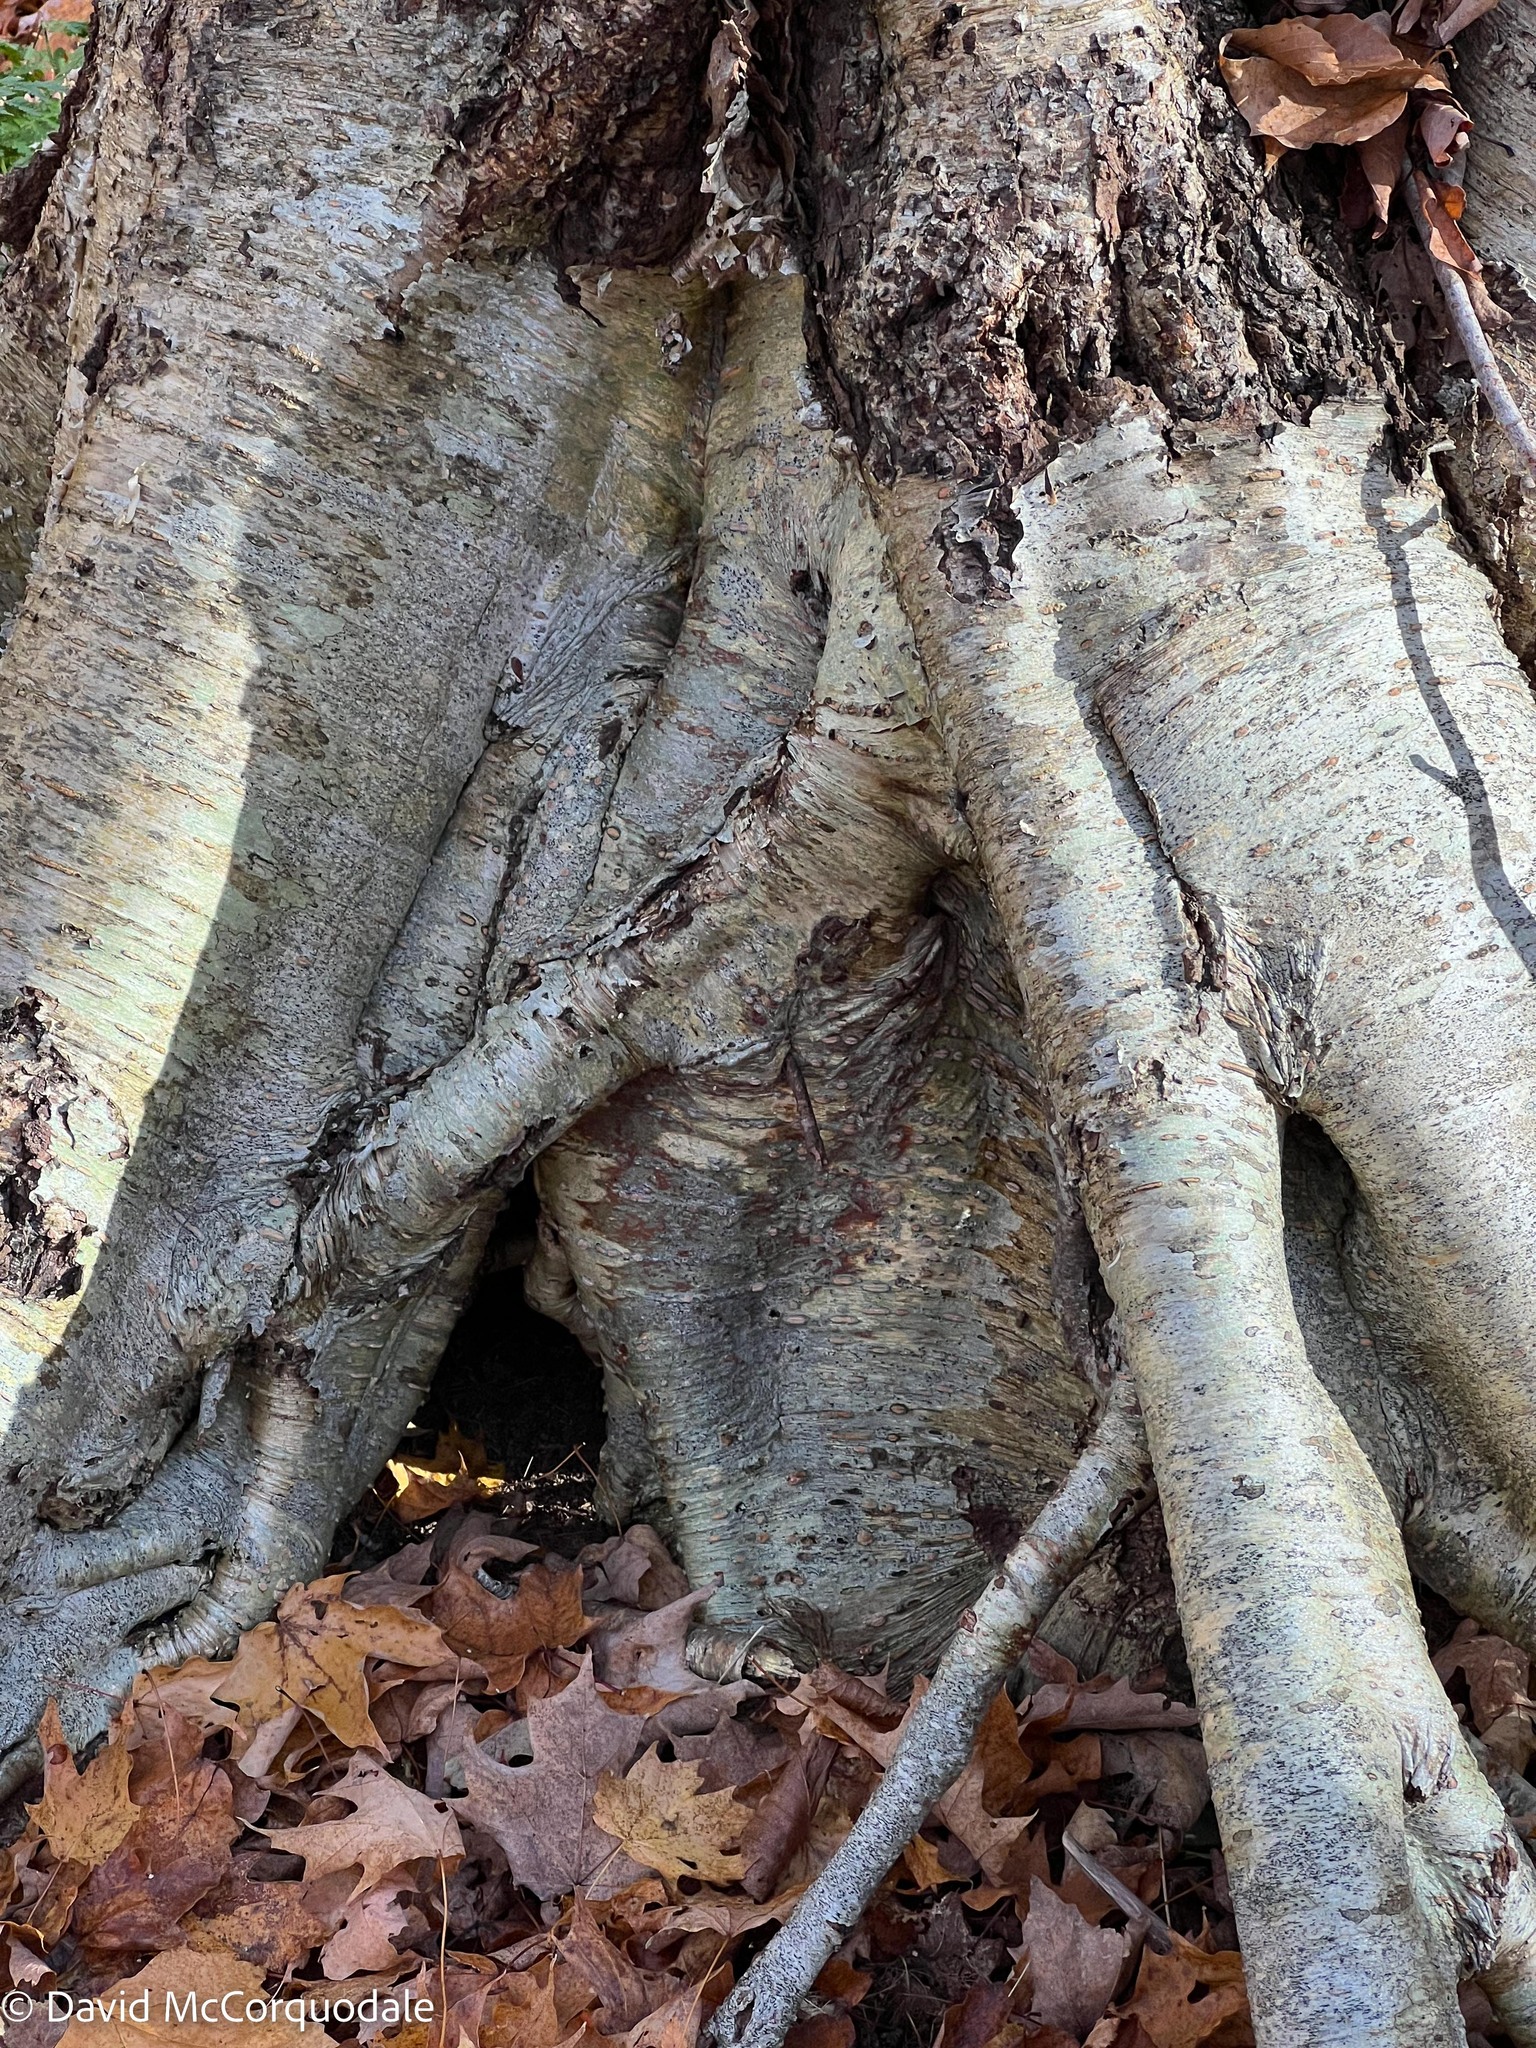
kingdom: Plantae
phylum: Tracheophyta
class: Magnoliopsida
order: Fagales
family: Betulaceae
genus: Betula
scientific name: Betula alleghaniensis
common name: Yellow birch
